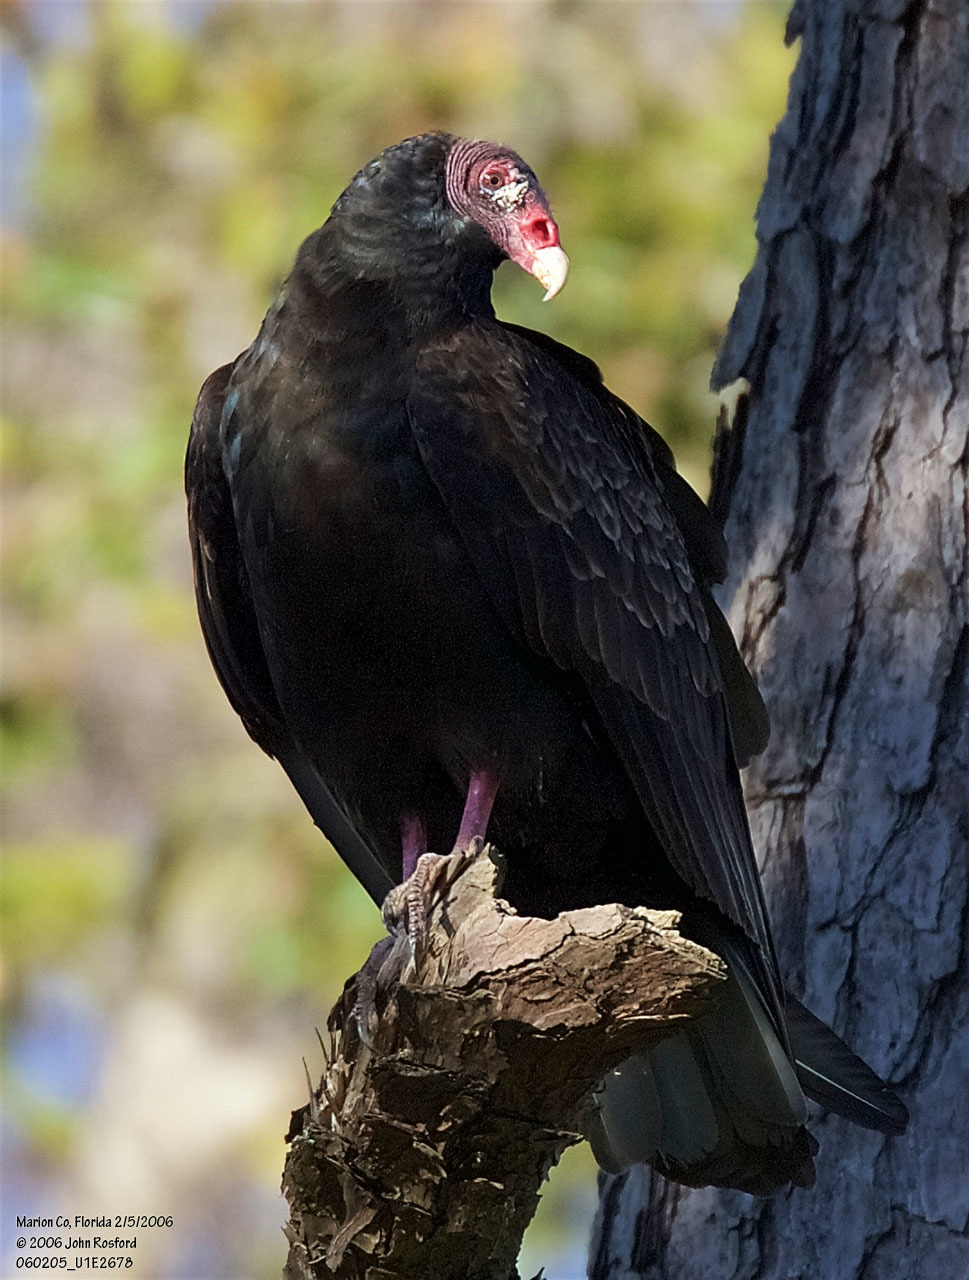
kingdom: Animalia
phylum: Chordata
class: Aves
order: Accipitriformes
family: Cathartidae
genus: Cathartes
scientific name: Cathartes aura
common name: Turkey vulture
